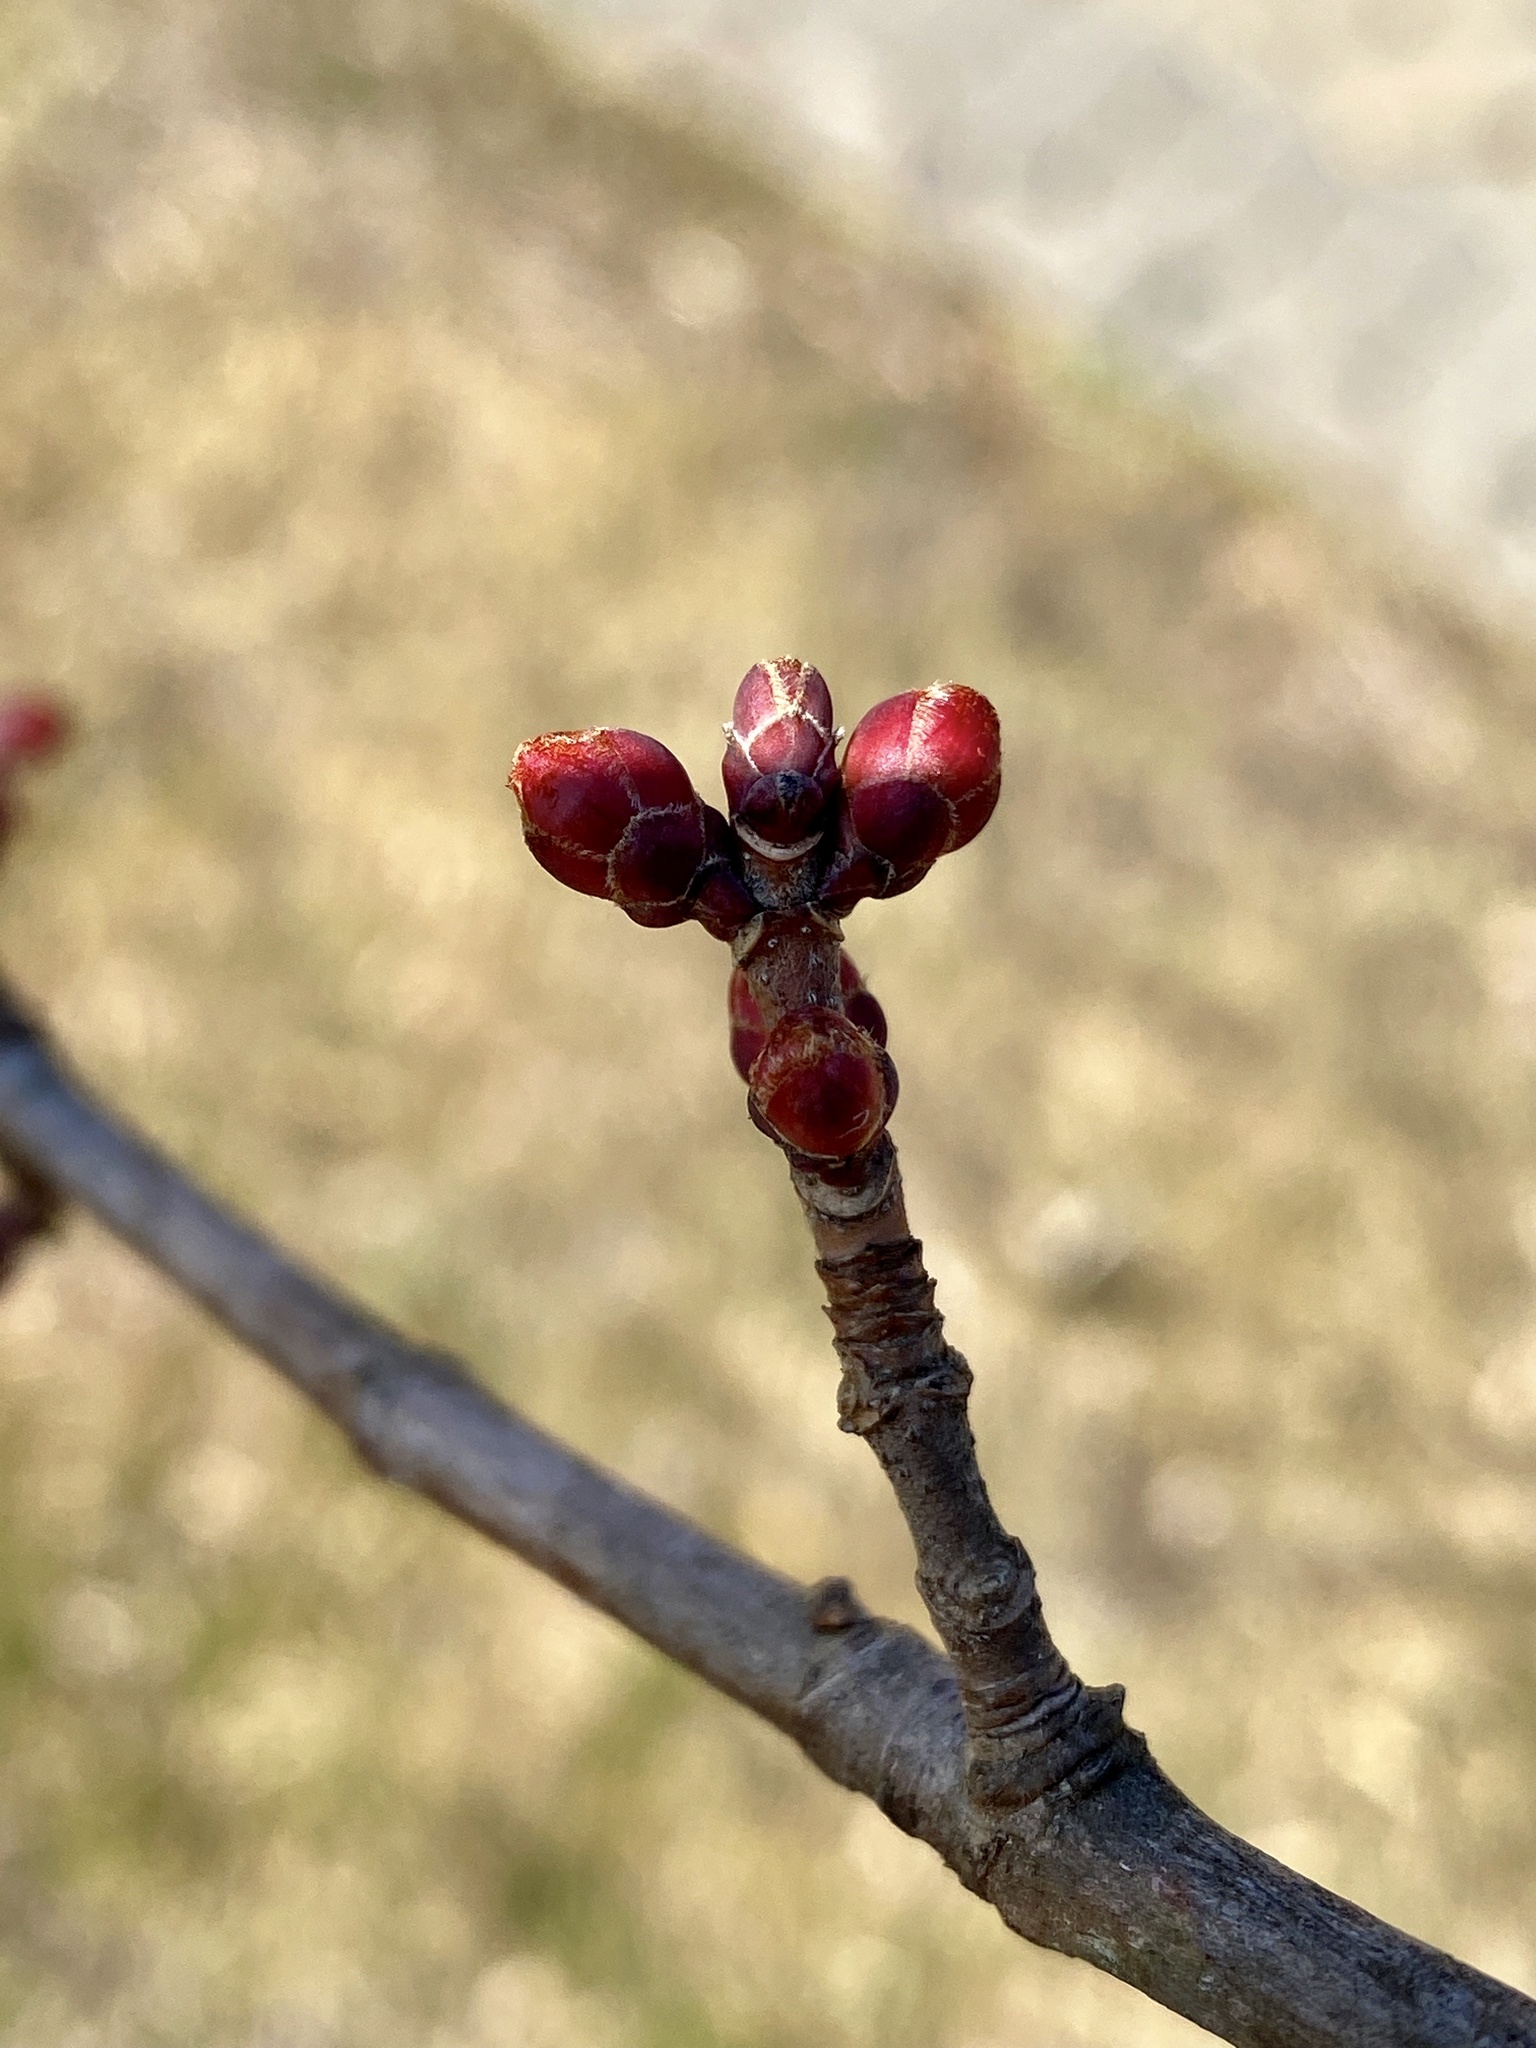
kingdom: Plantae
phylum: Tracheophyta
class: Magnoliopsida
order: Sapindales
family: Sapindaceae
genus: Acer
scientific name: Acer rubrum
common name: Red maple
